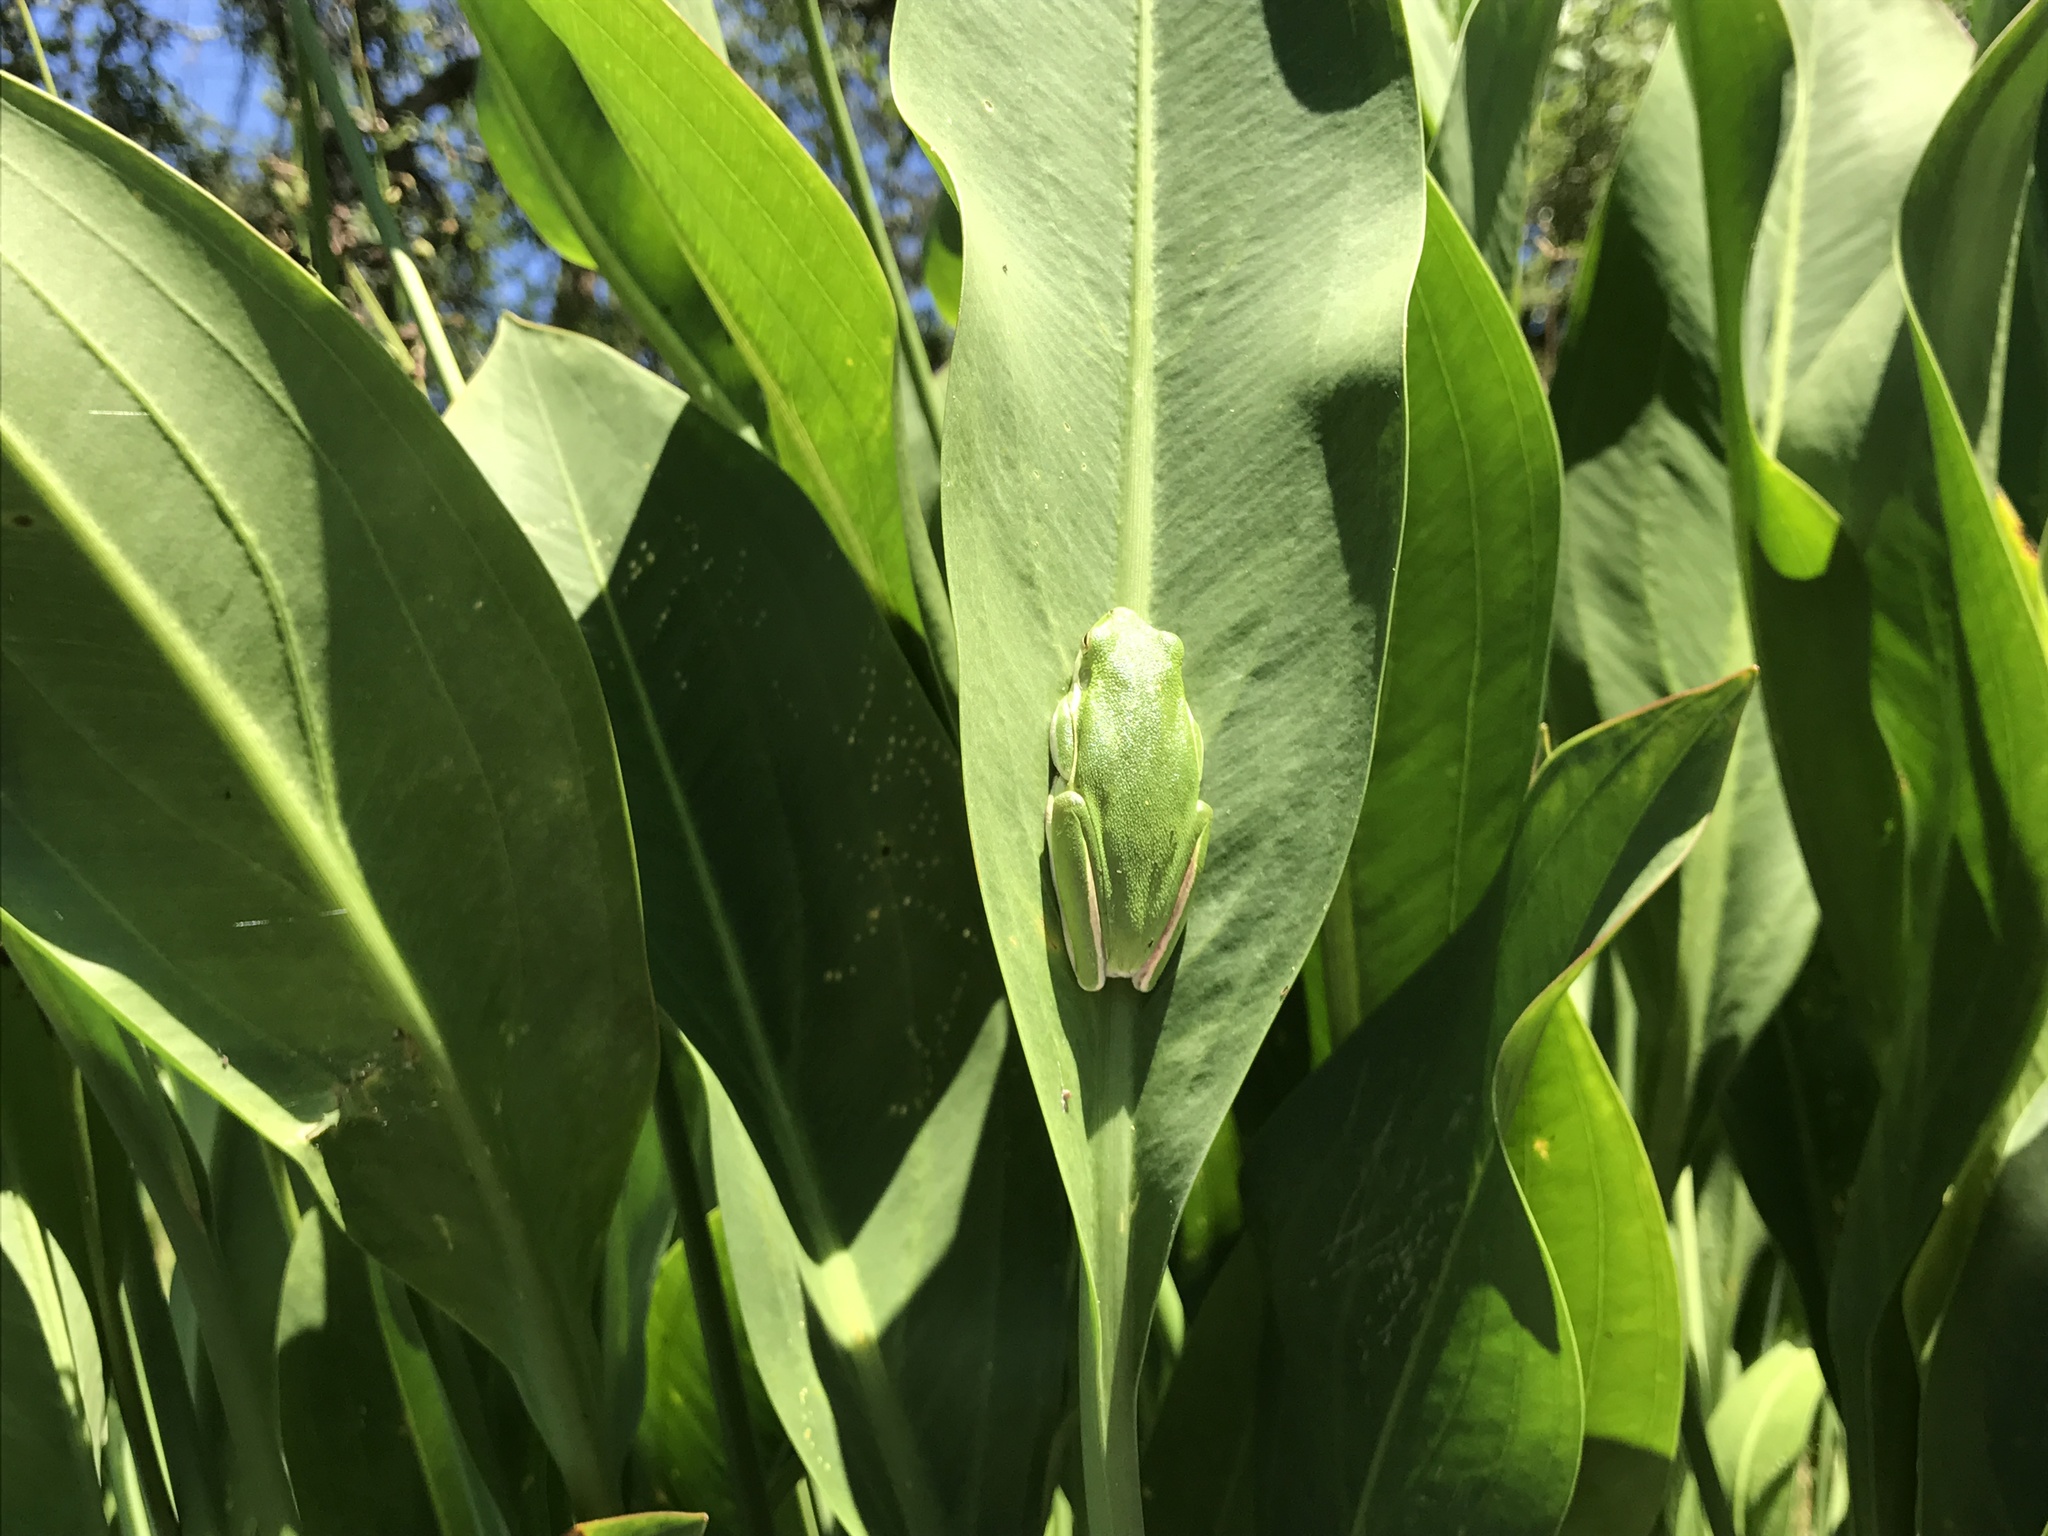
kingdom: Animalia
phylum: Chordata
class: Amphibia
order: Anura
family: Hylidae
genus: Dryophytes
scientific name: Dryophytes cinereus
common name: Green treefrog
